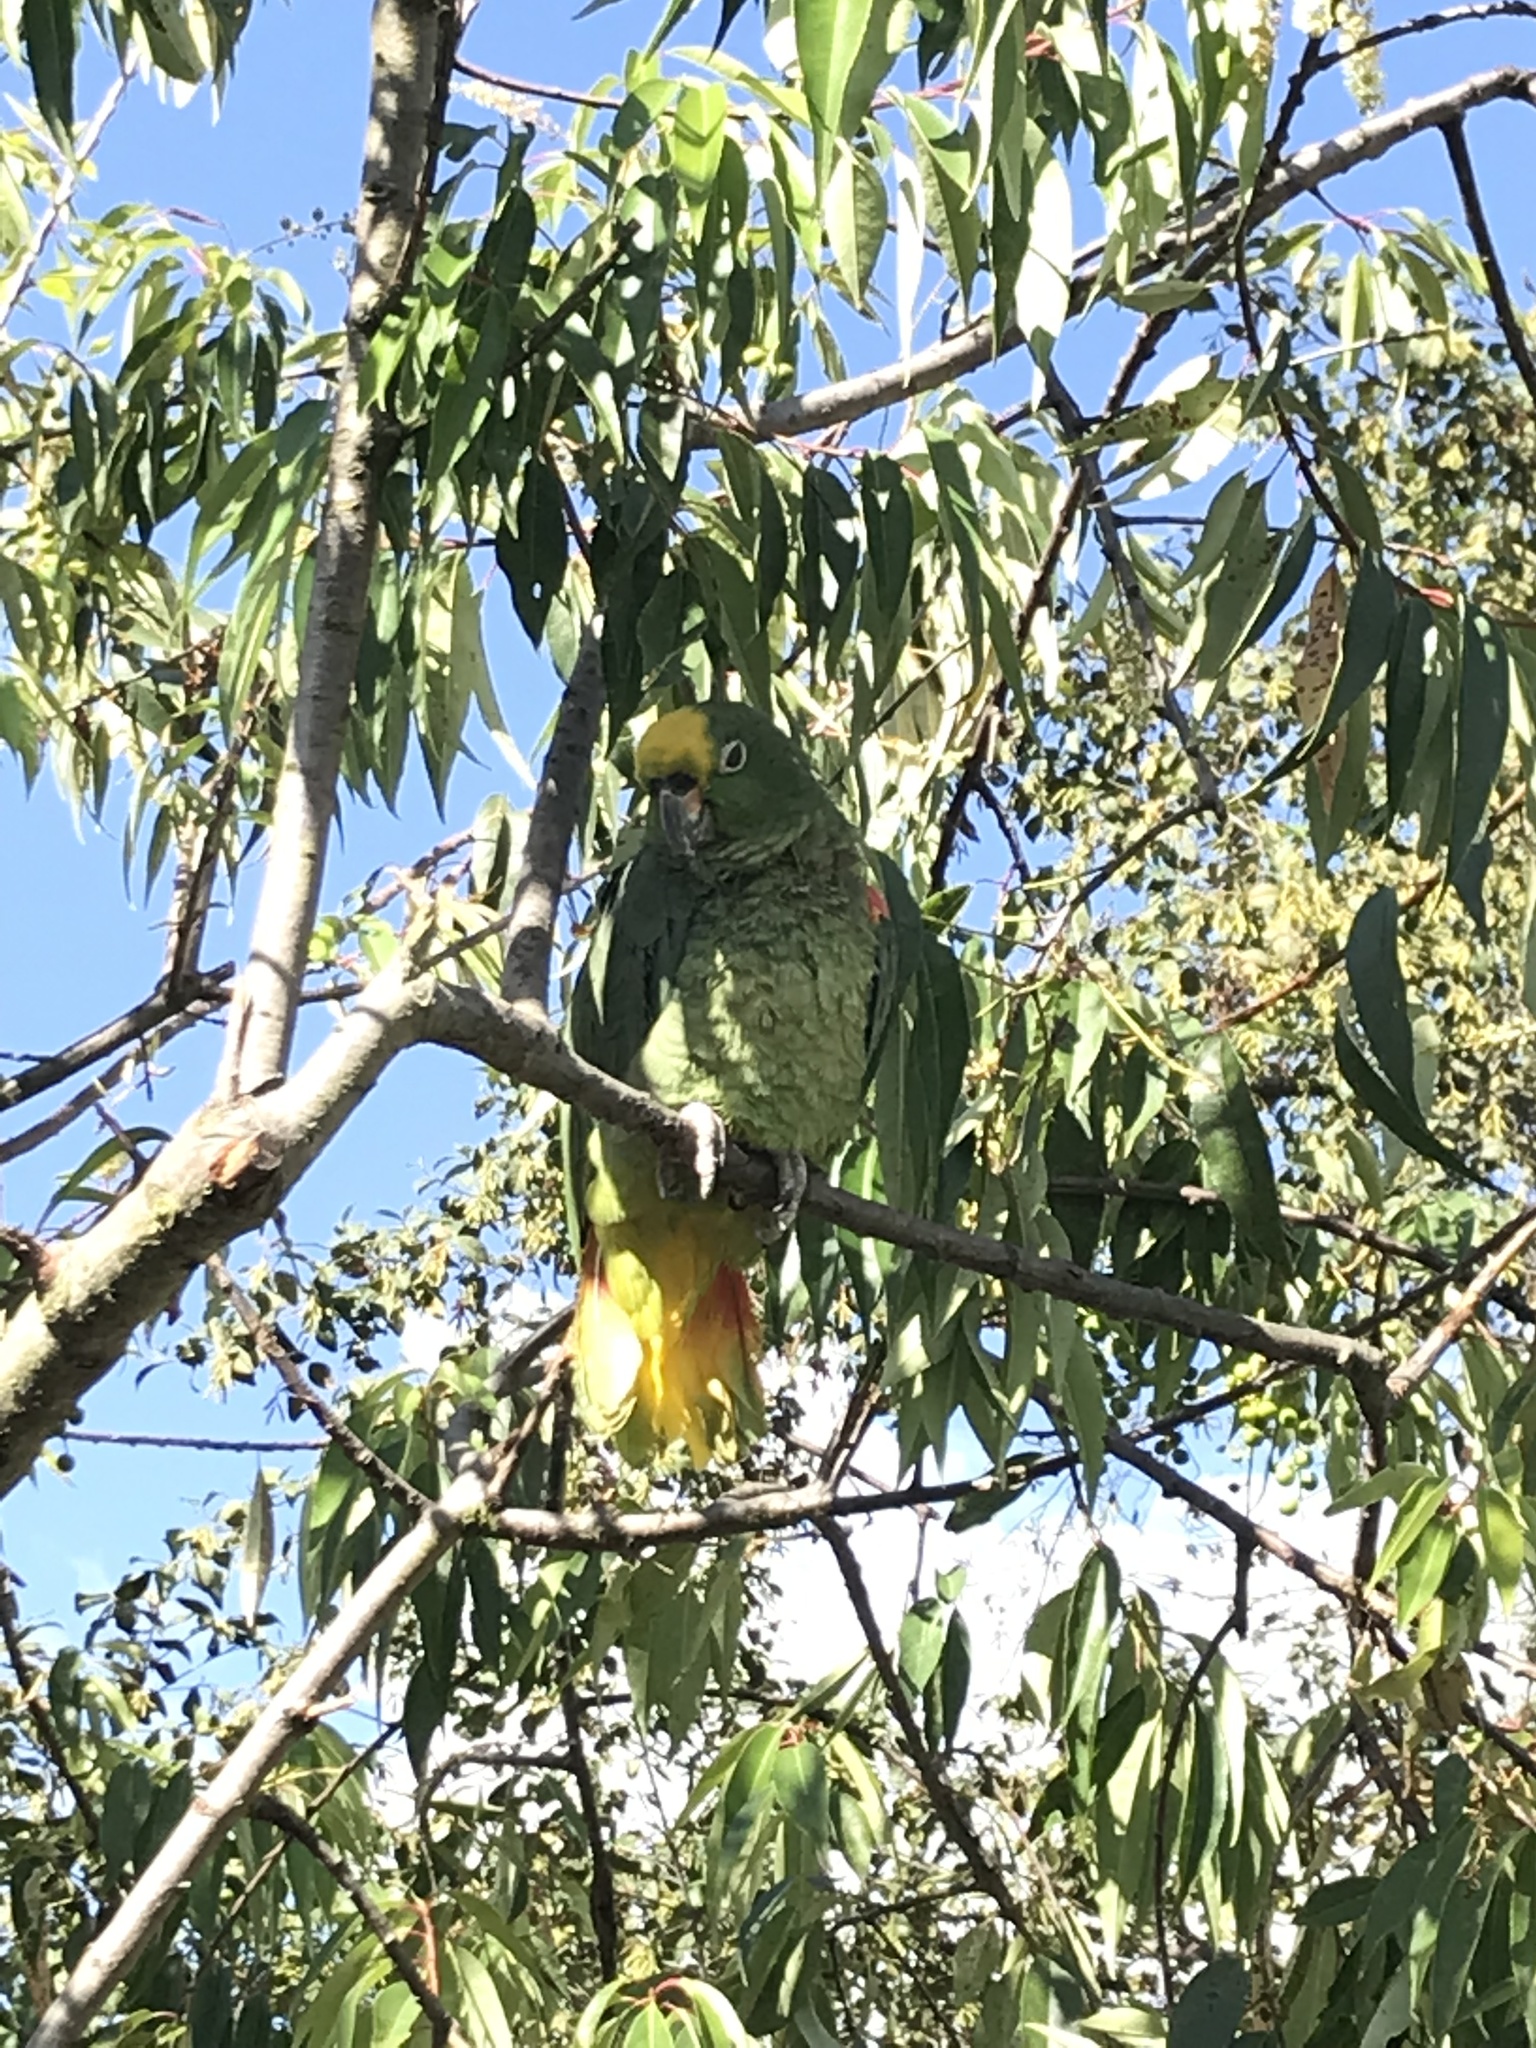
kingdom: Animalia
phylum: Chordata
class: Aves
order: Psittaciformes
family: Psittacidae
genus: Amazona
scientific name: Amazona ochrocephala
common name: Yellow-crowned amazon
